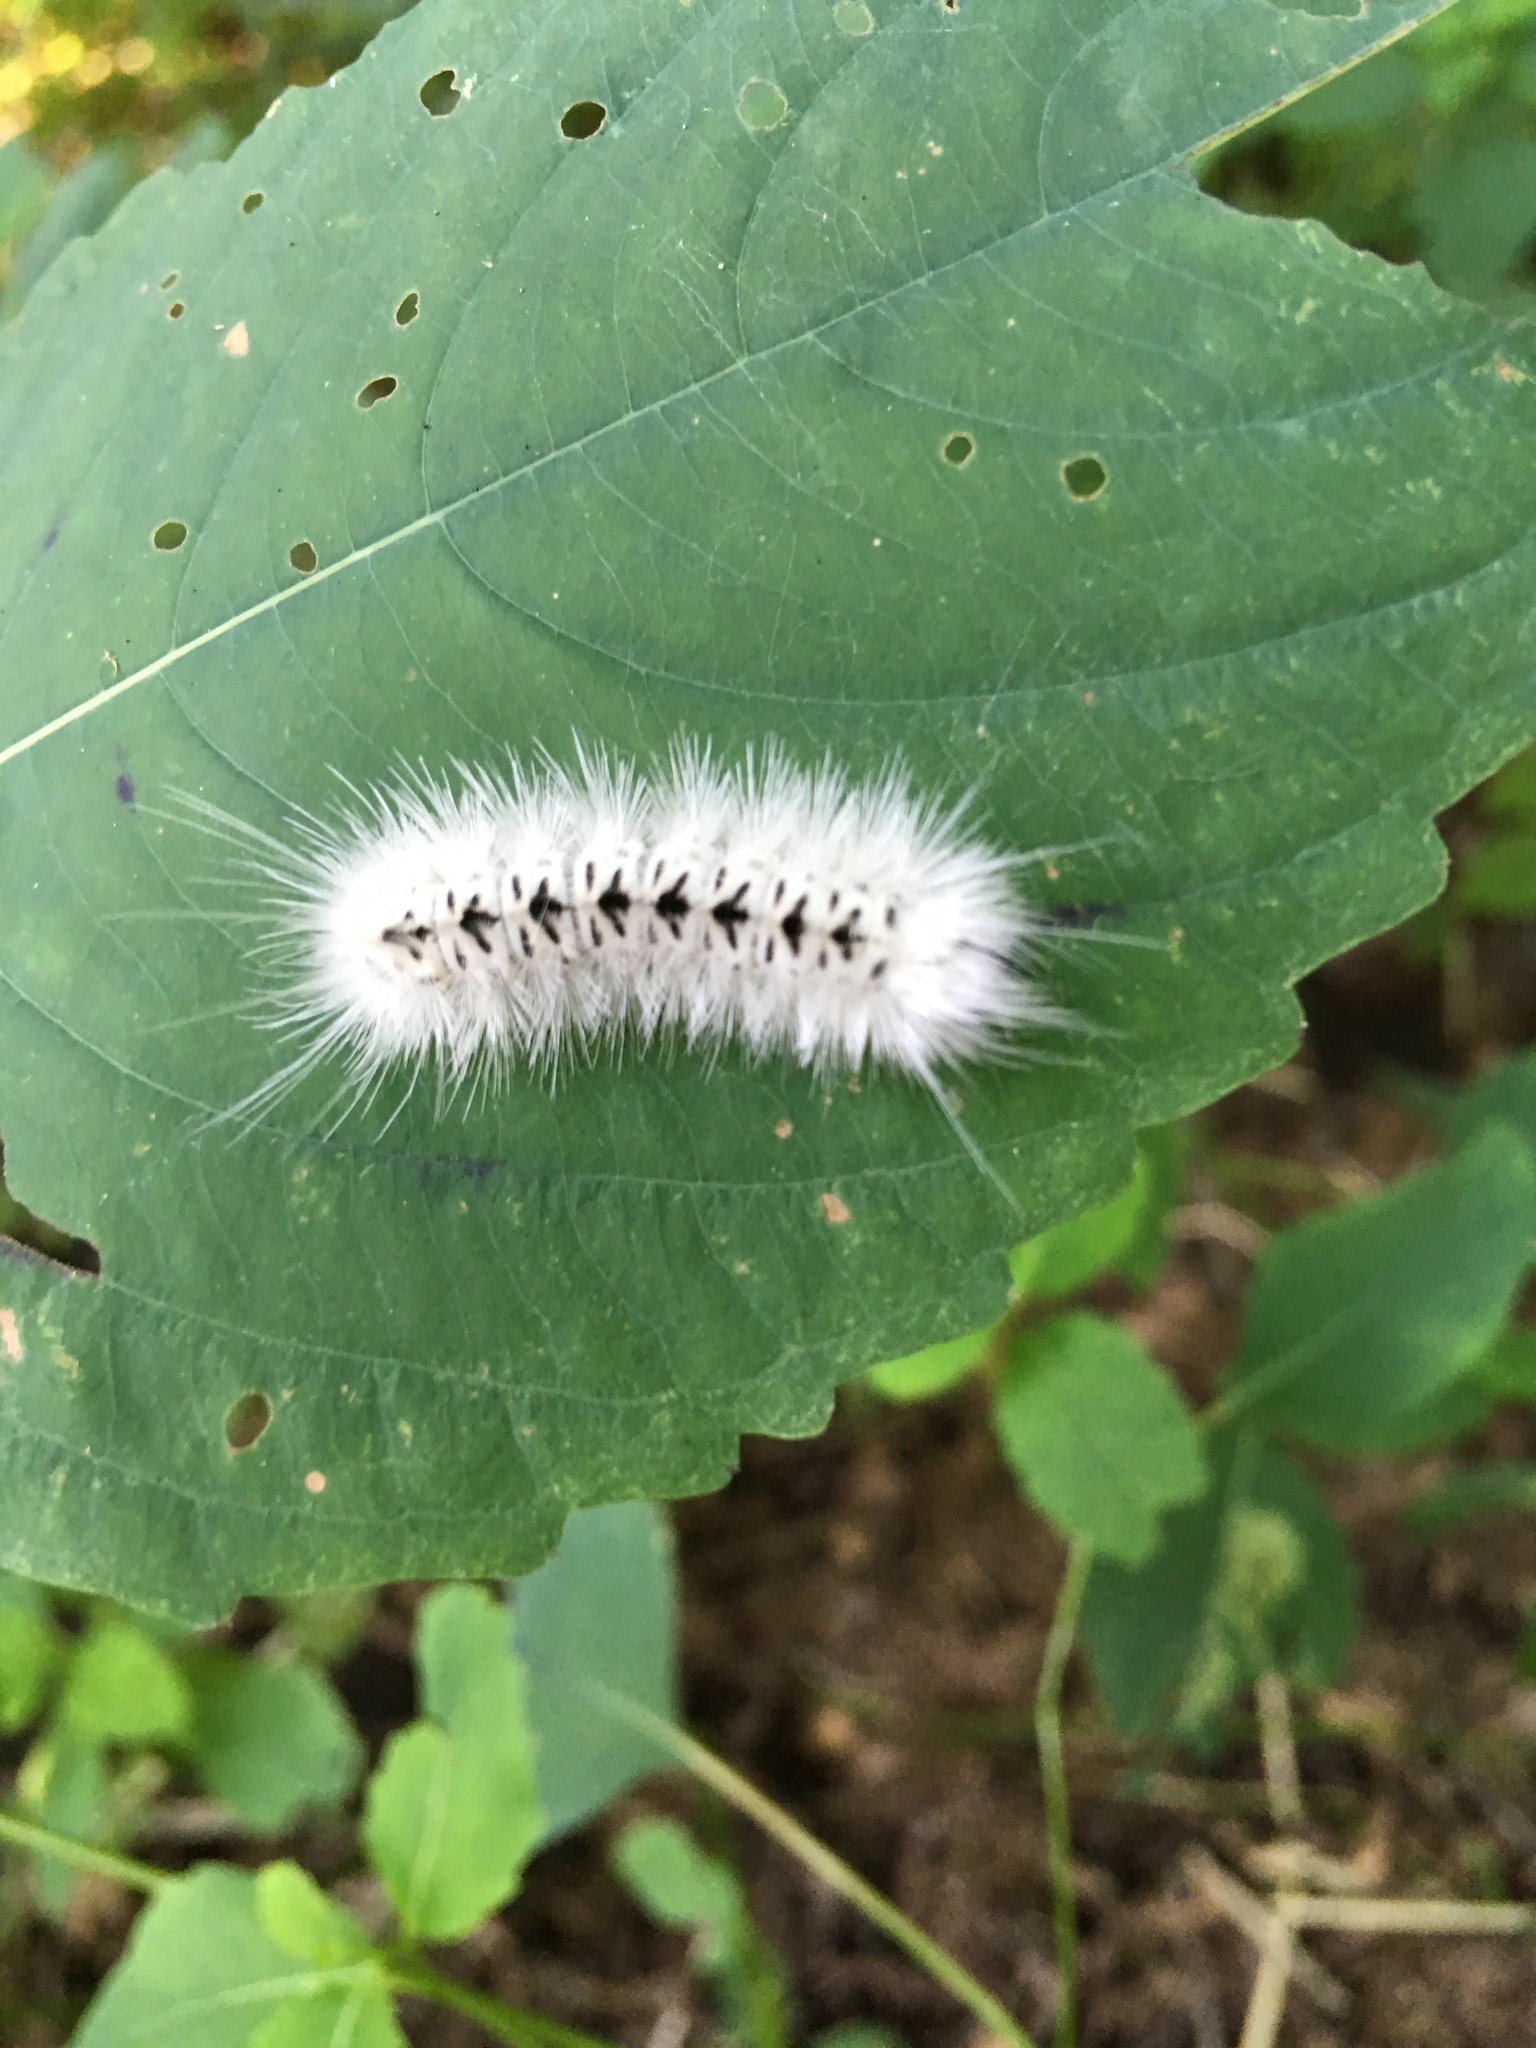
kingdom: Animalia
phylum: Arthropoda
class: Insecta
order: Lepidoptera
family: Erebidae
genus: Lophocampa
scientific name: Lophocampa caryae
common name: Hickory tussock moth
